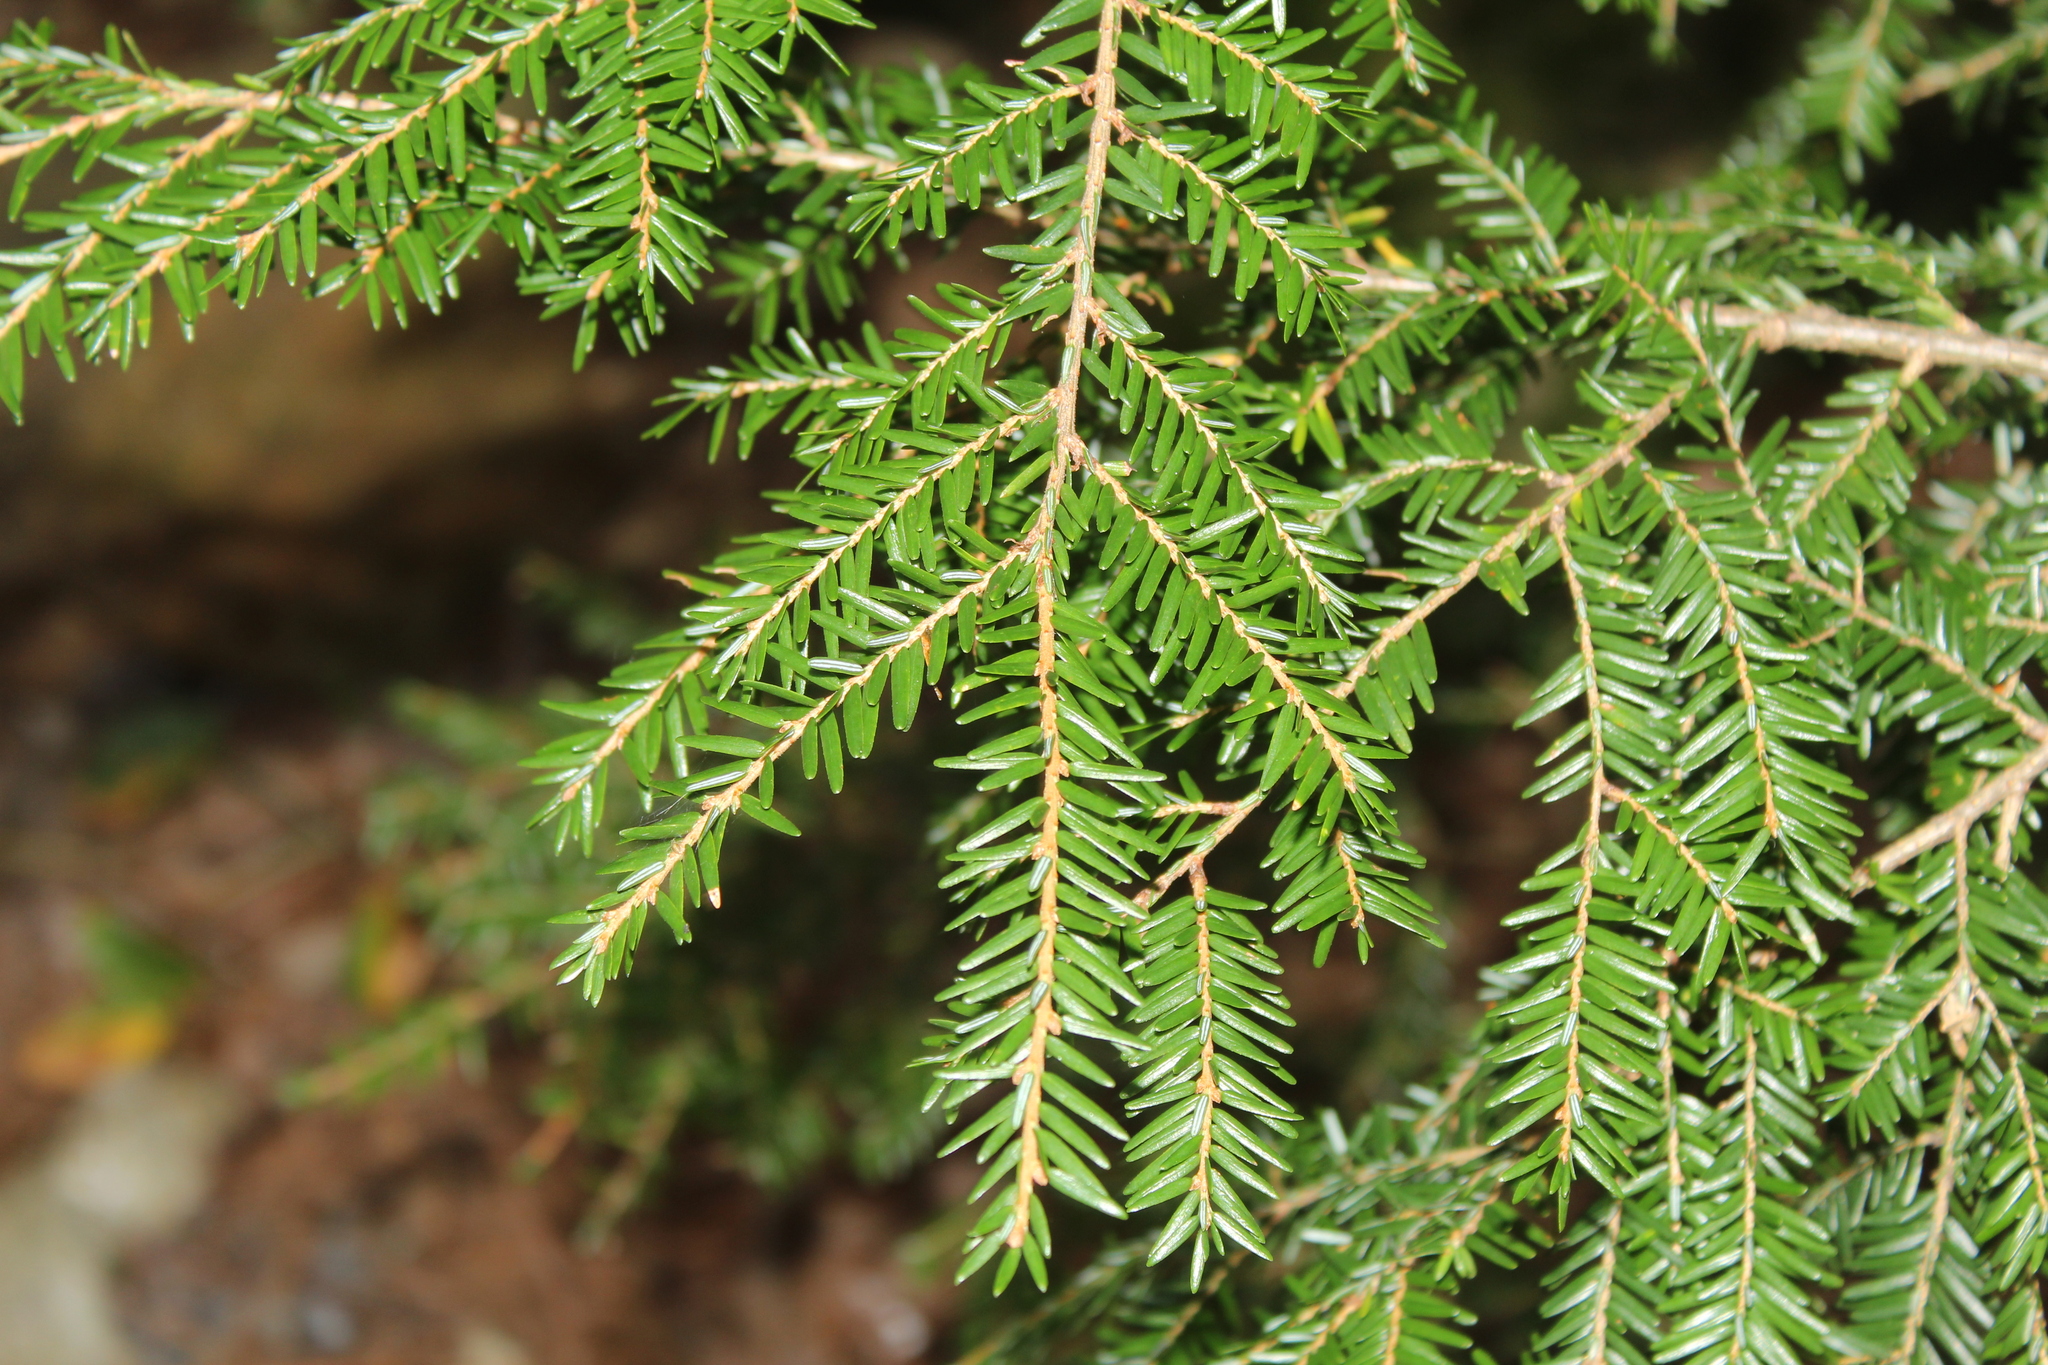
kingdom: Plantae
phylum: Tracheophyta
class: Pinopsida
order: Pinales
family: Pinaceae
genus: Tsuga
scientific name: Tsuga canadensis
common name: Eastern hemlock
